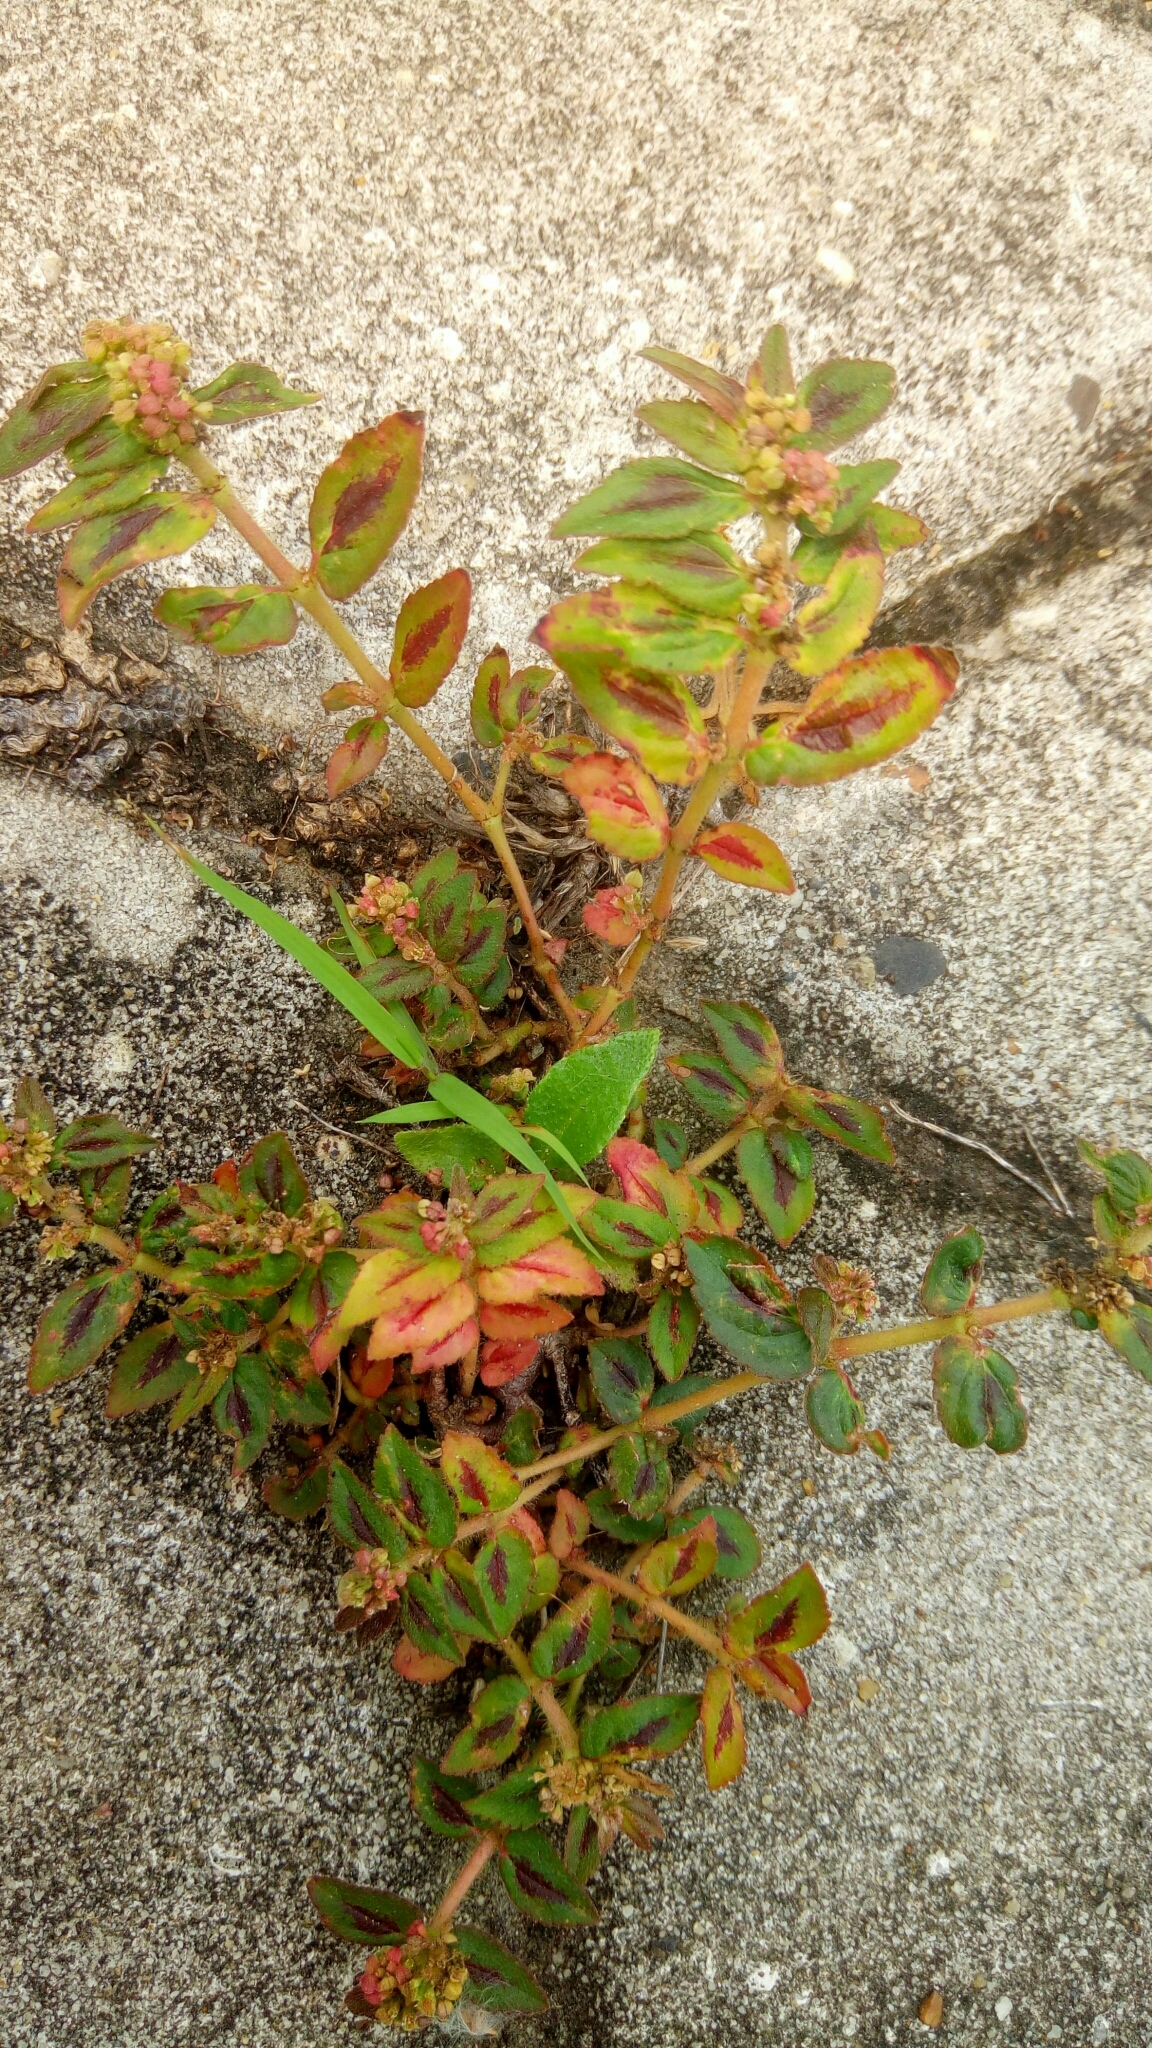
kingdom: Plantae
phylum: Tracheophyta
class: Magnoliopsida
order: Malpighiales
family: Euphorbiaceae
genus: Euphorbia
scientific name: Euphorbia hirta
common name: Pillpod sandmat
